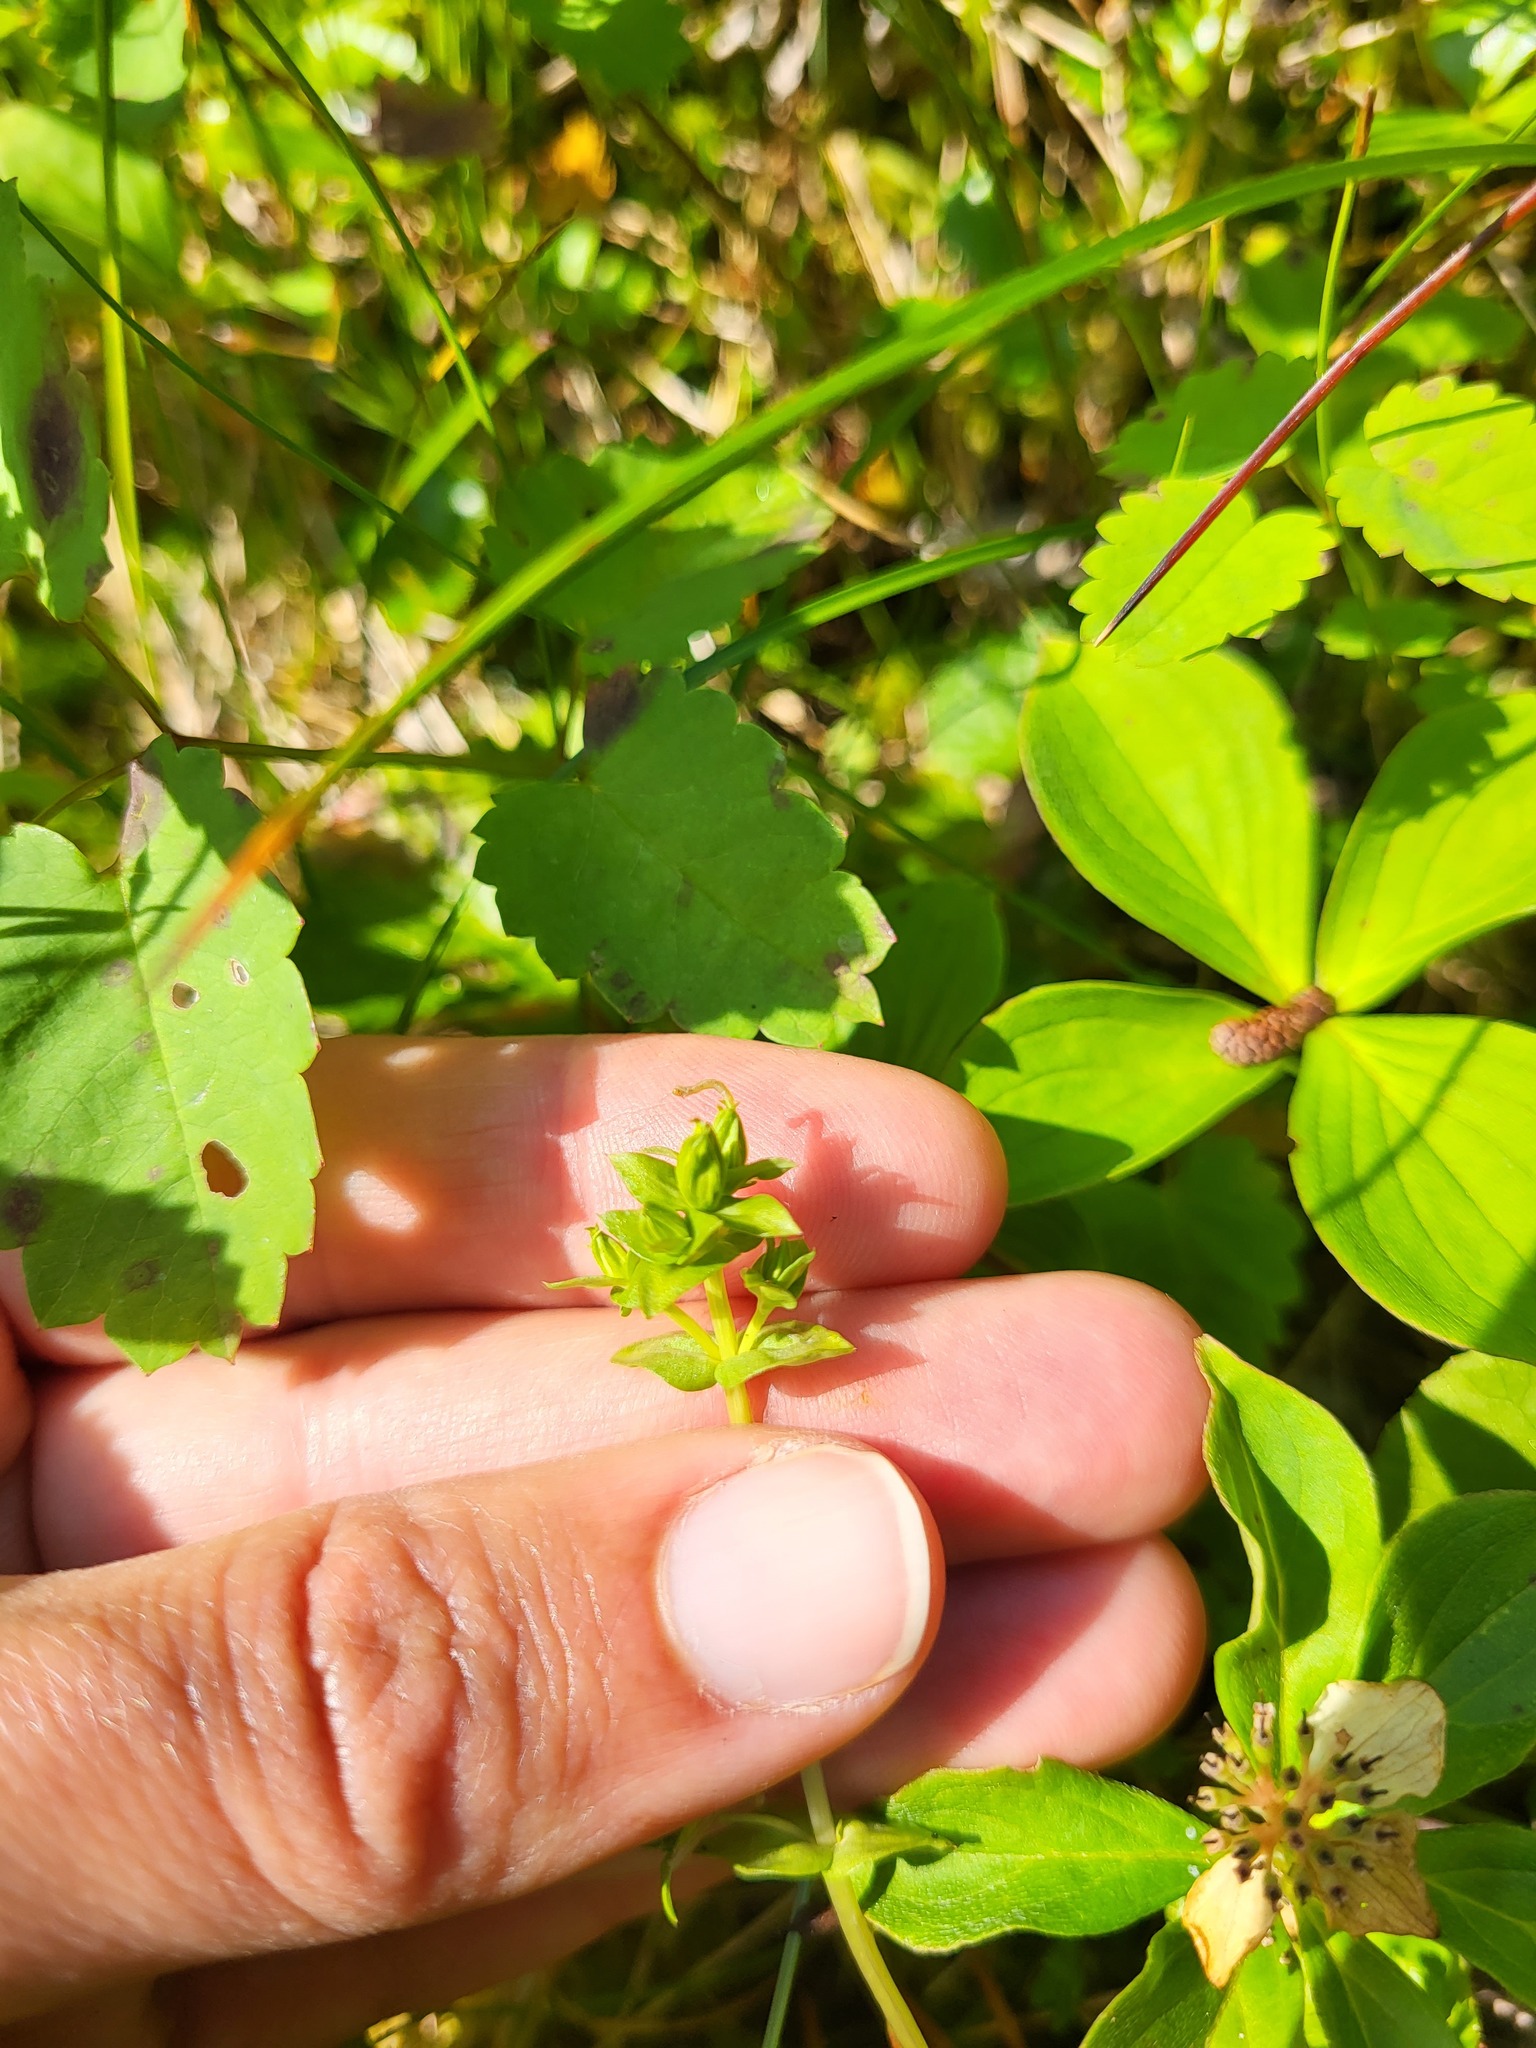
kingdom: Plantae
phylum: Tracheophyta
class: Magnoliopsida
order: Gentianales
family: Gentianaceae
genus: Gentiana
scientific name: Gentiana douglasiana
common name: Swamp gentian
